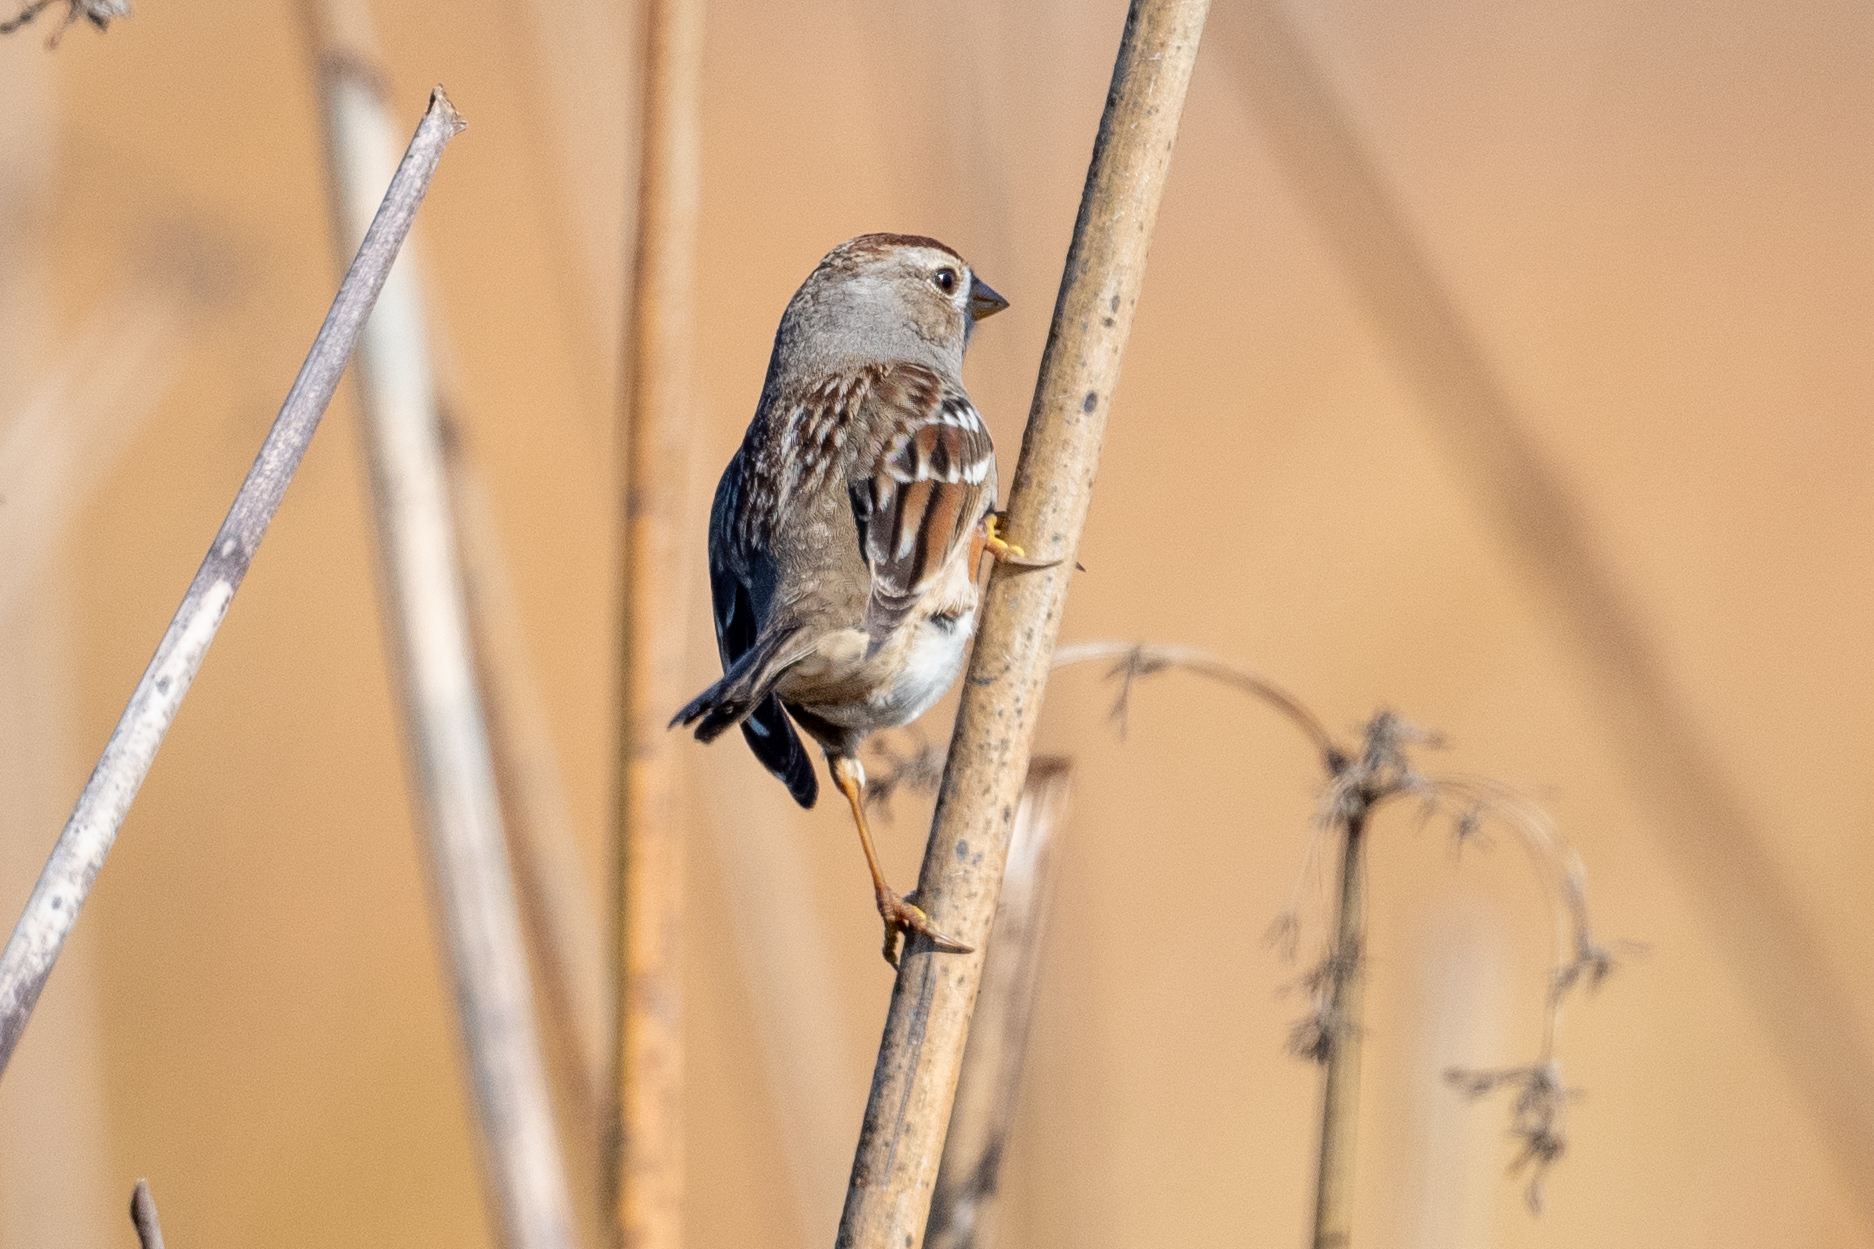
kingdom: Animalia
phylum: Chordata
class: Aves
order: Passeriformes
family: Passerellidae
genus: Zonotrichia
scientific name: Zonotrichia leucophrys
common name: White-crowned sparrow
